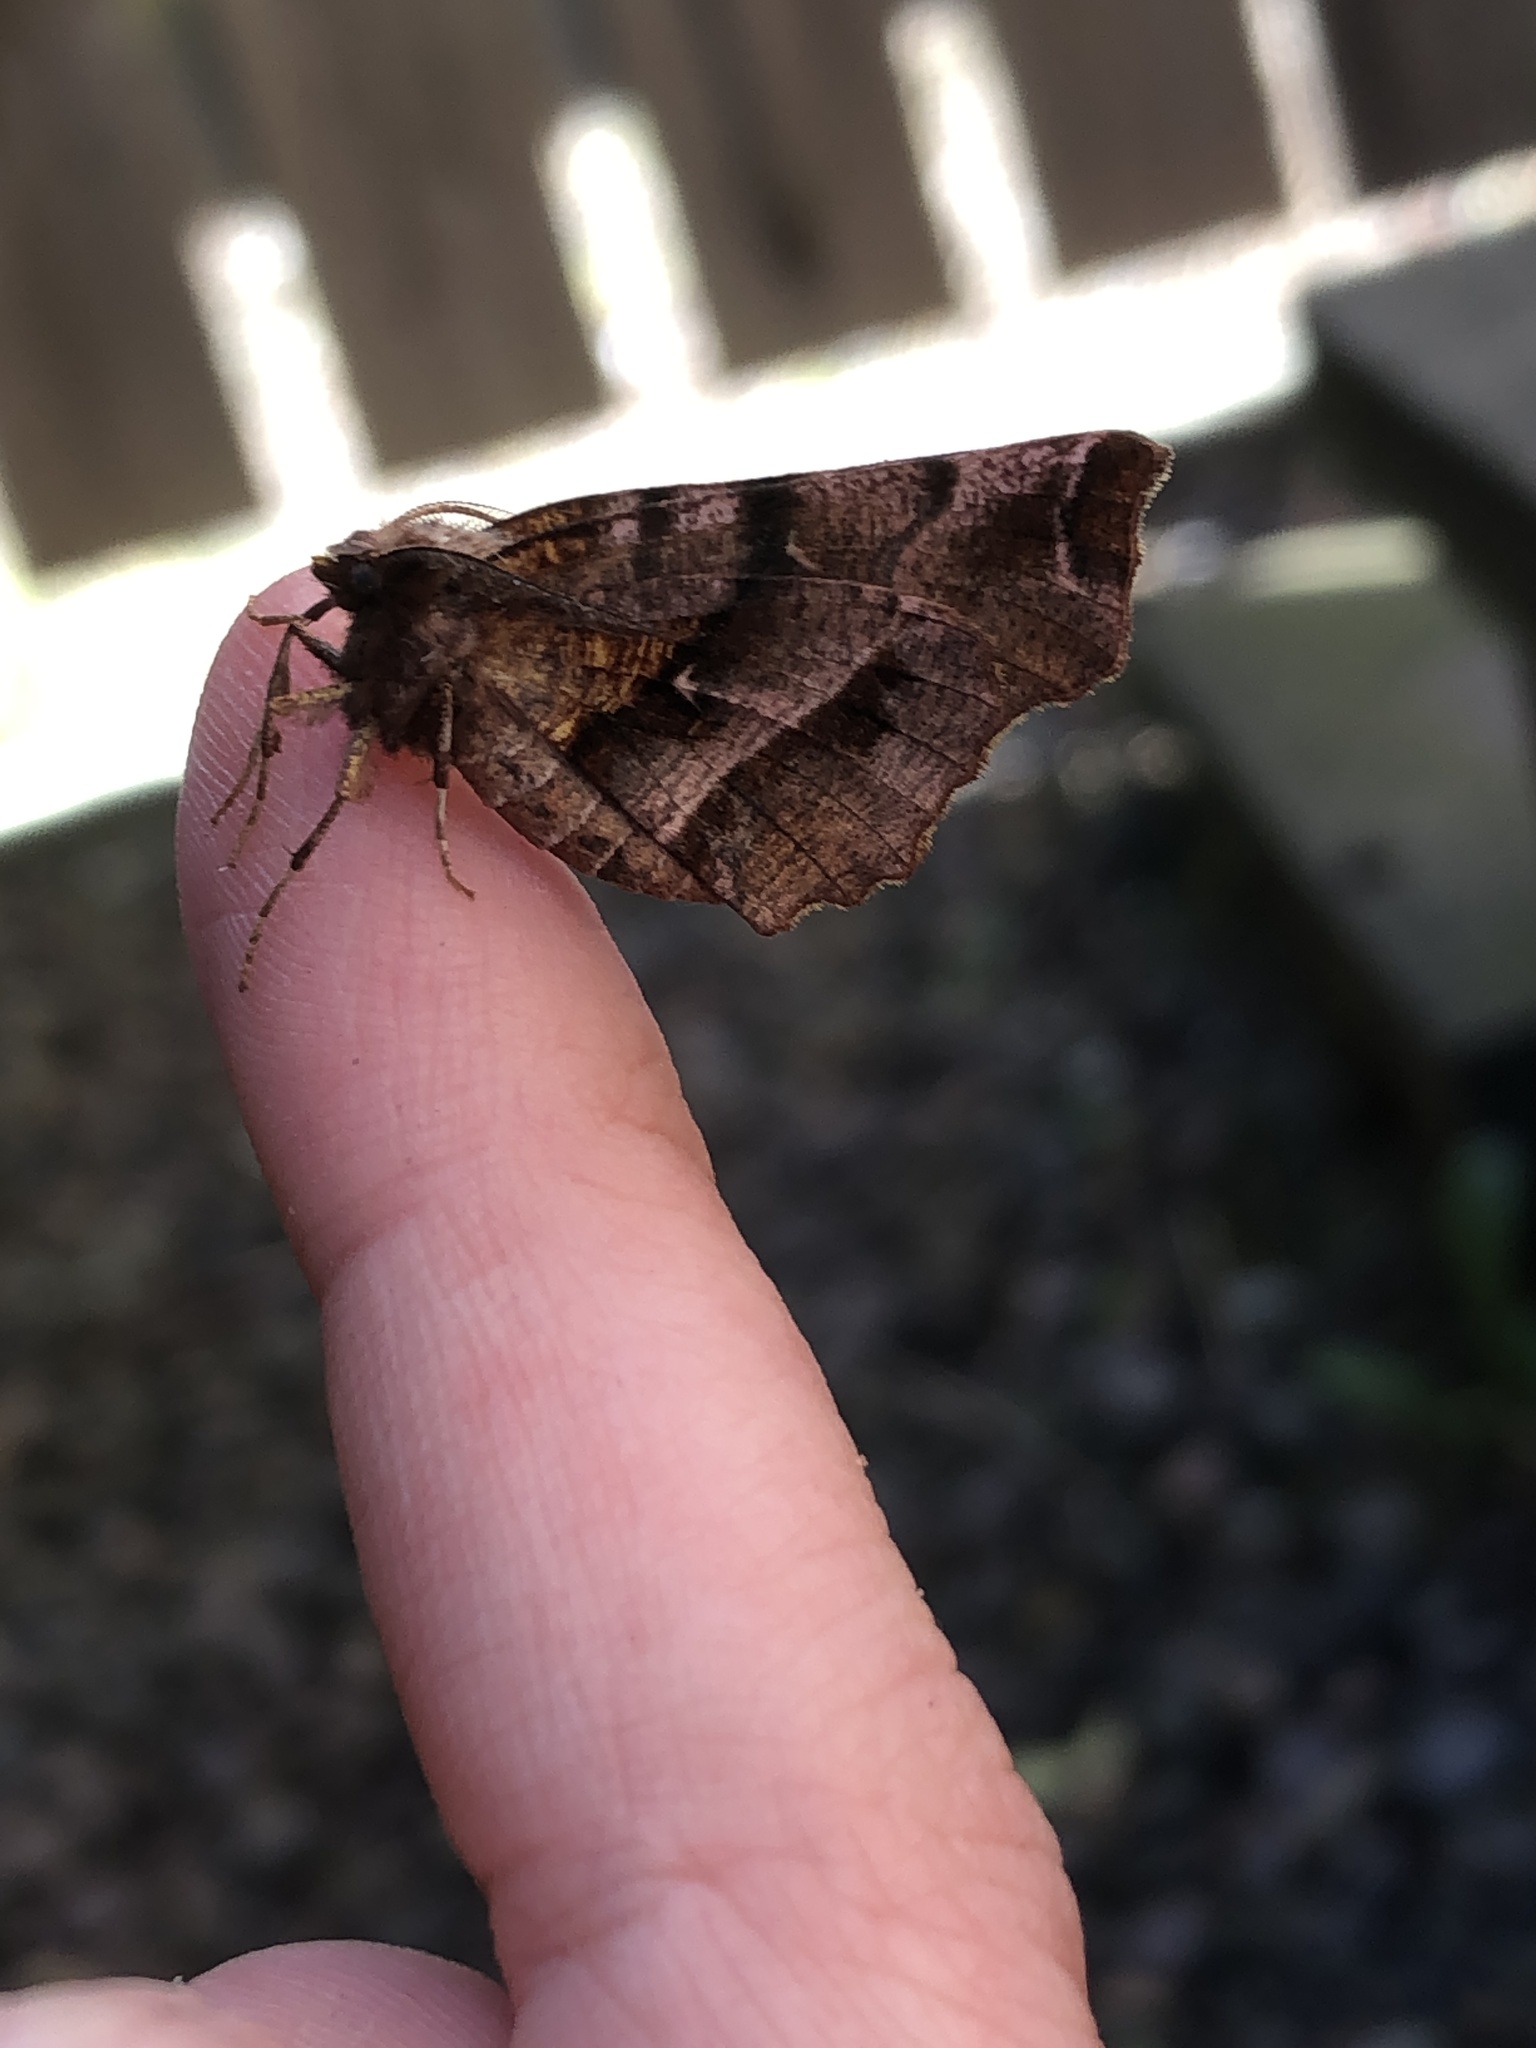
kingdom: Animalia
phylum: Arthropoda
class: Insecta
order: Lepidoptera
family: Geometridae
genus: Selenia
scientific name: Selenia dentaria
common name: Early thorn
